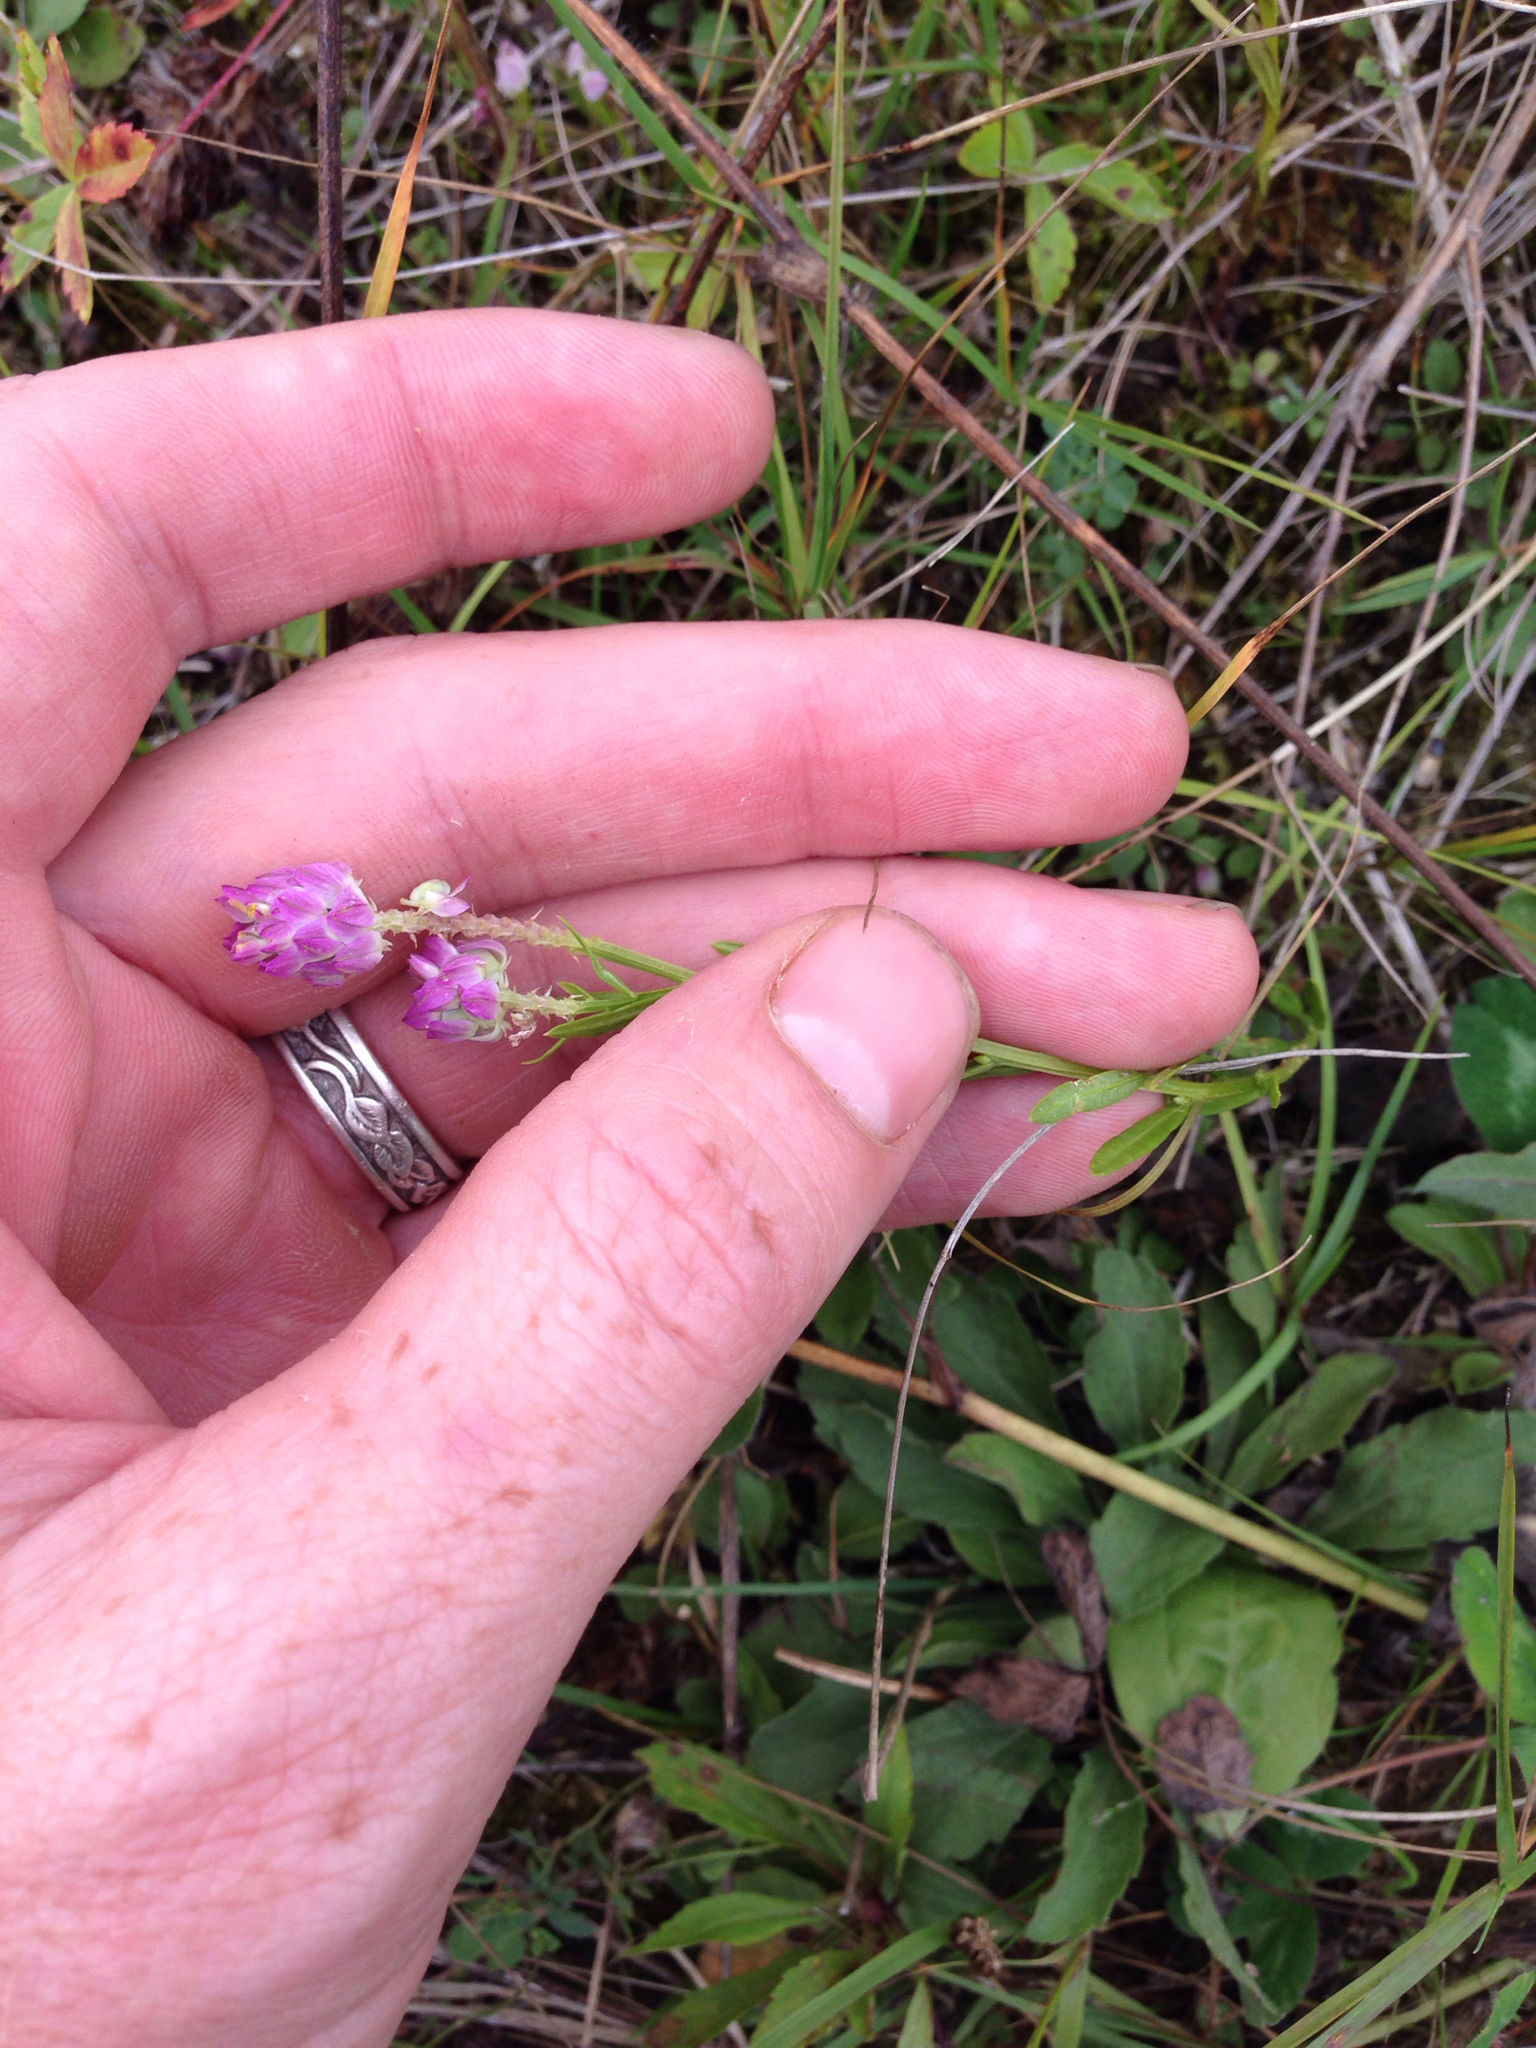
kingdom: Plantae
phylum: Tracheophyta
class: Magnoliopsida
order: Fabales
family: Polygalaceae
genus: Polygala
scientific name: Polygala sanguinea
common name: Blood milkwort
